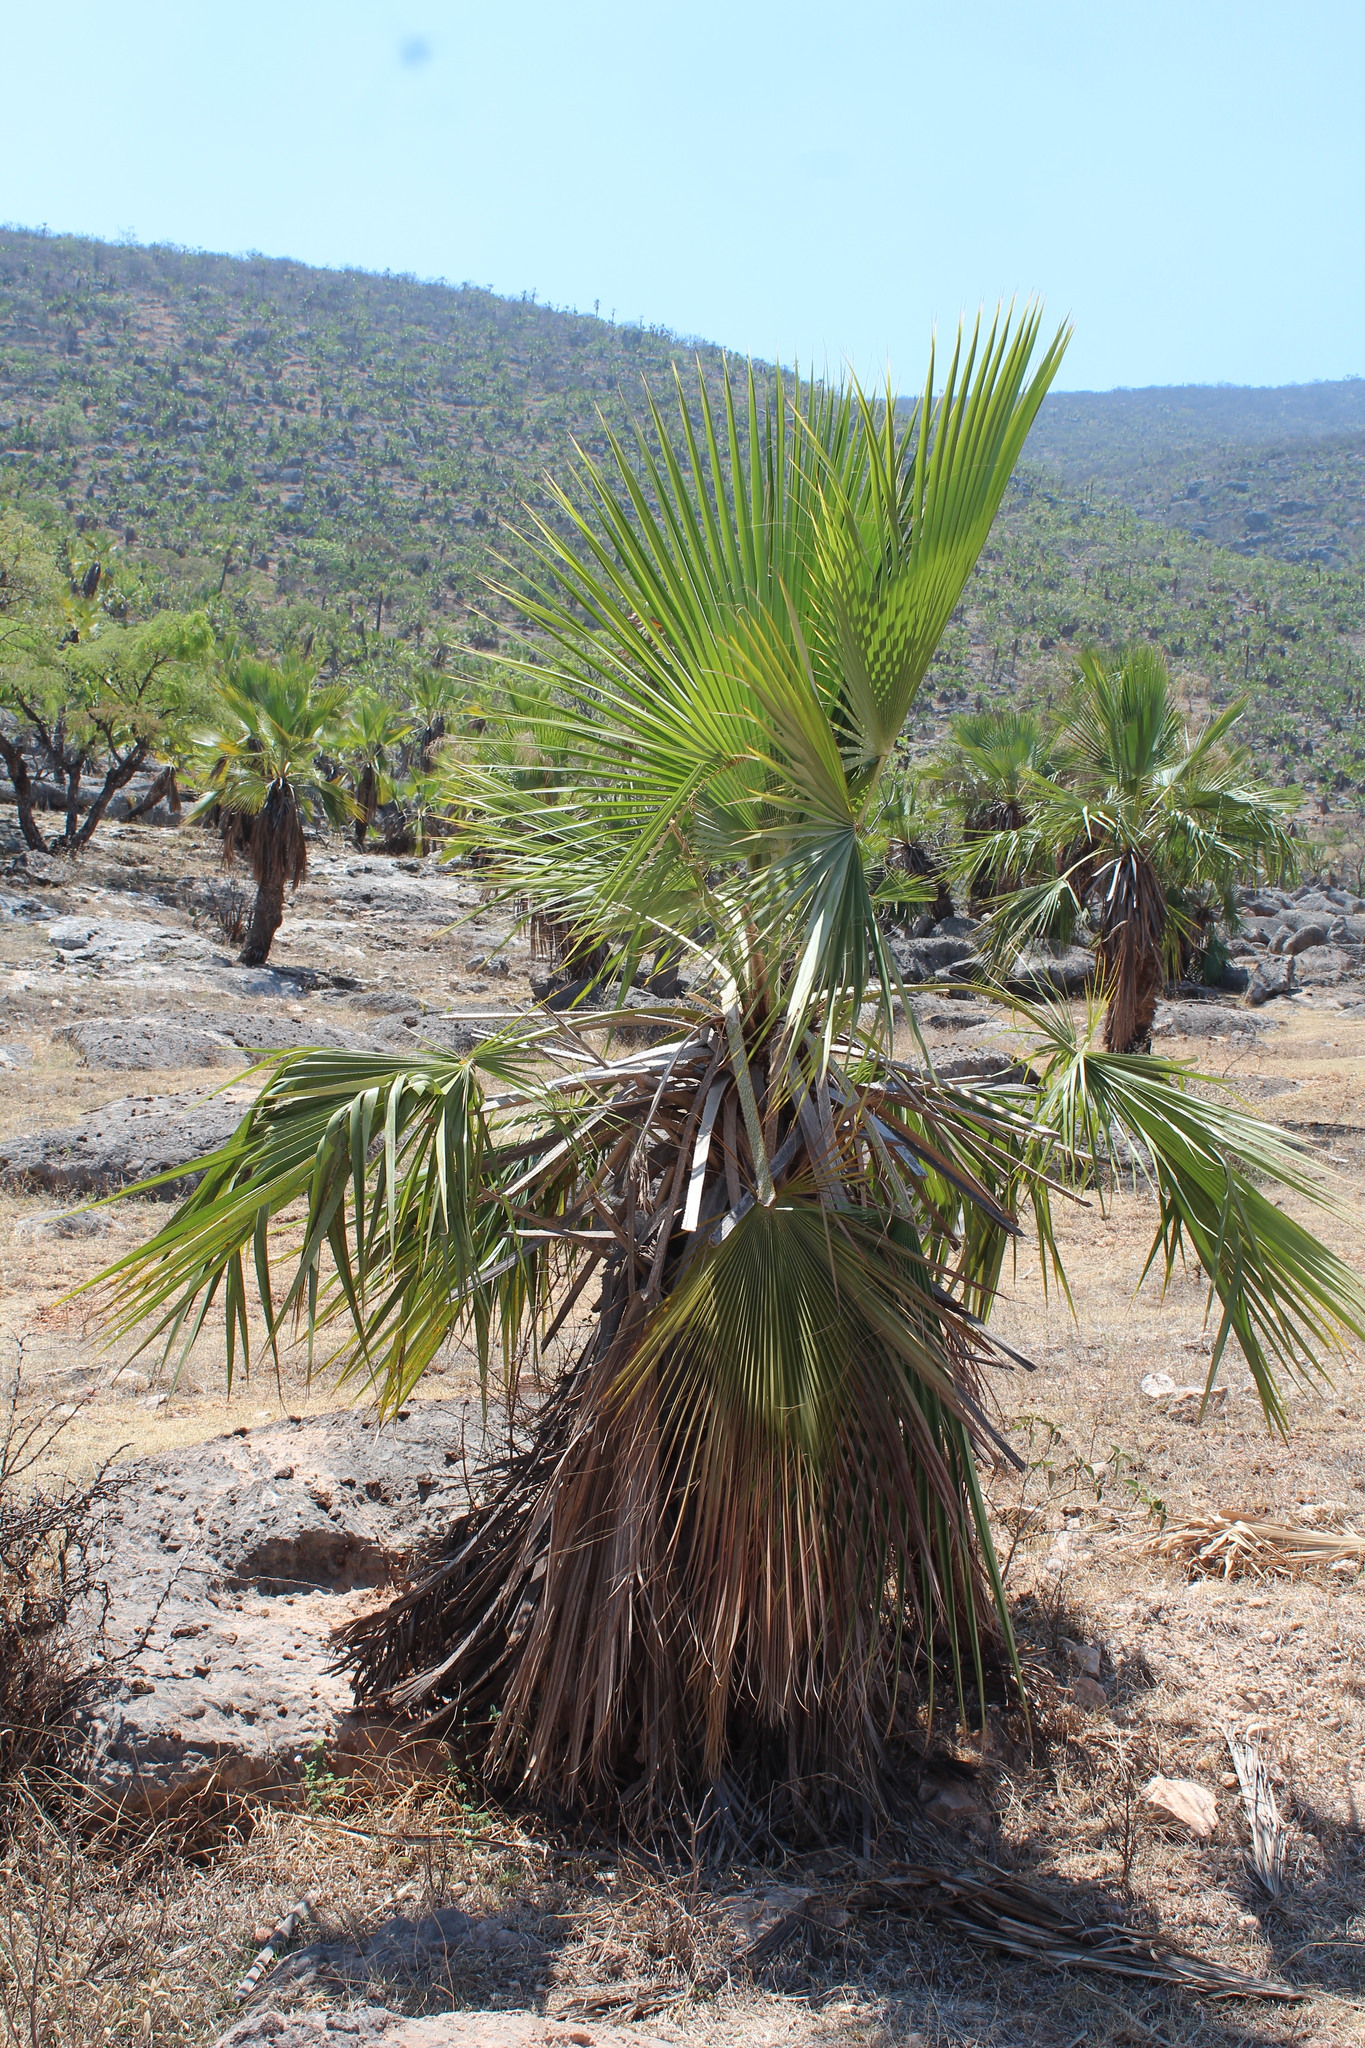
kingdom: Plantae
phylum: Tracheophyta
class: Liliopsida
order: Arecales
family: Arecaceae
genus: Brahea
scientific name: Brahea dulcis
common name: Apak palm
